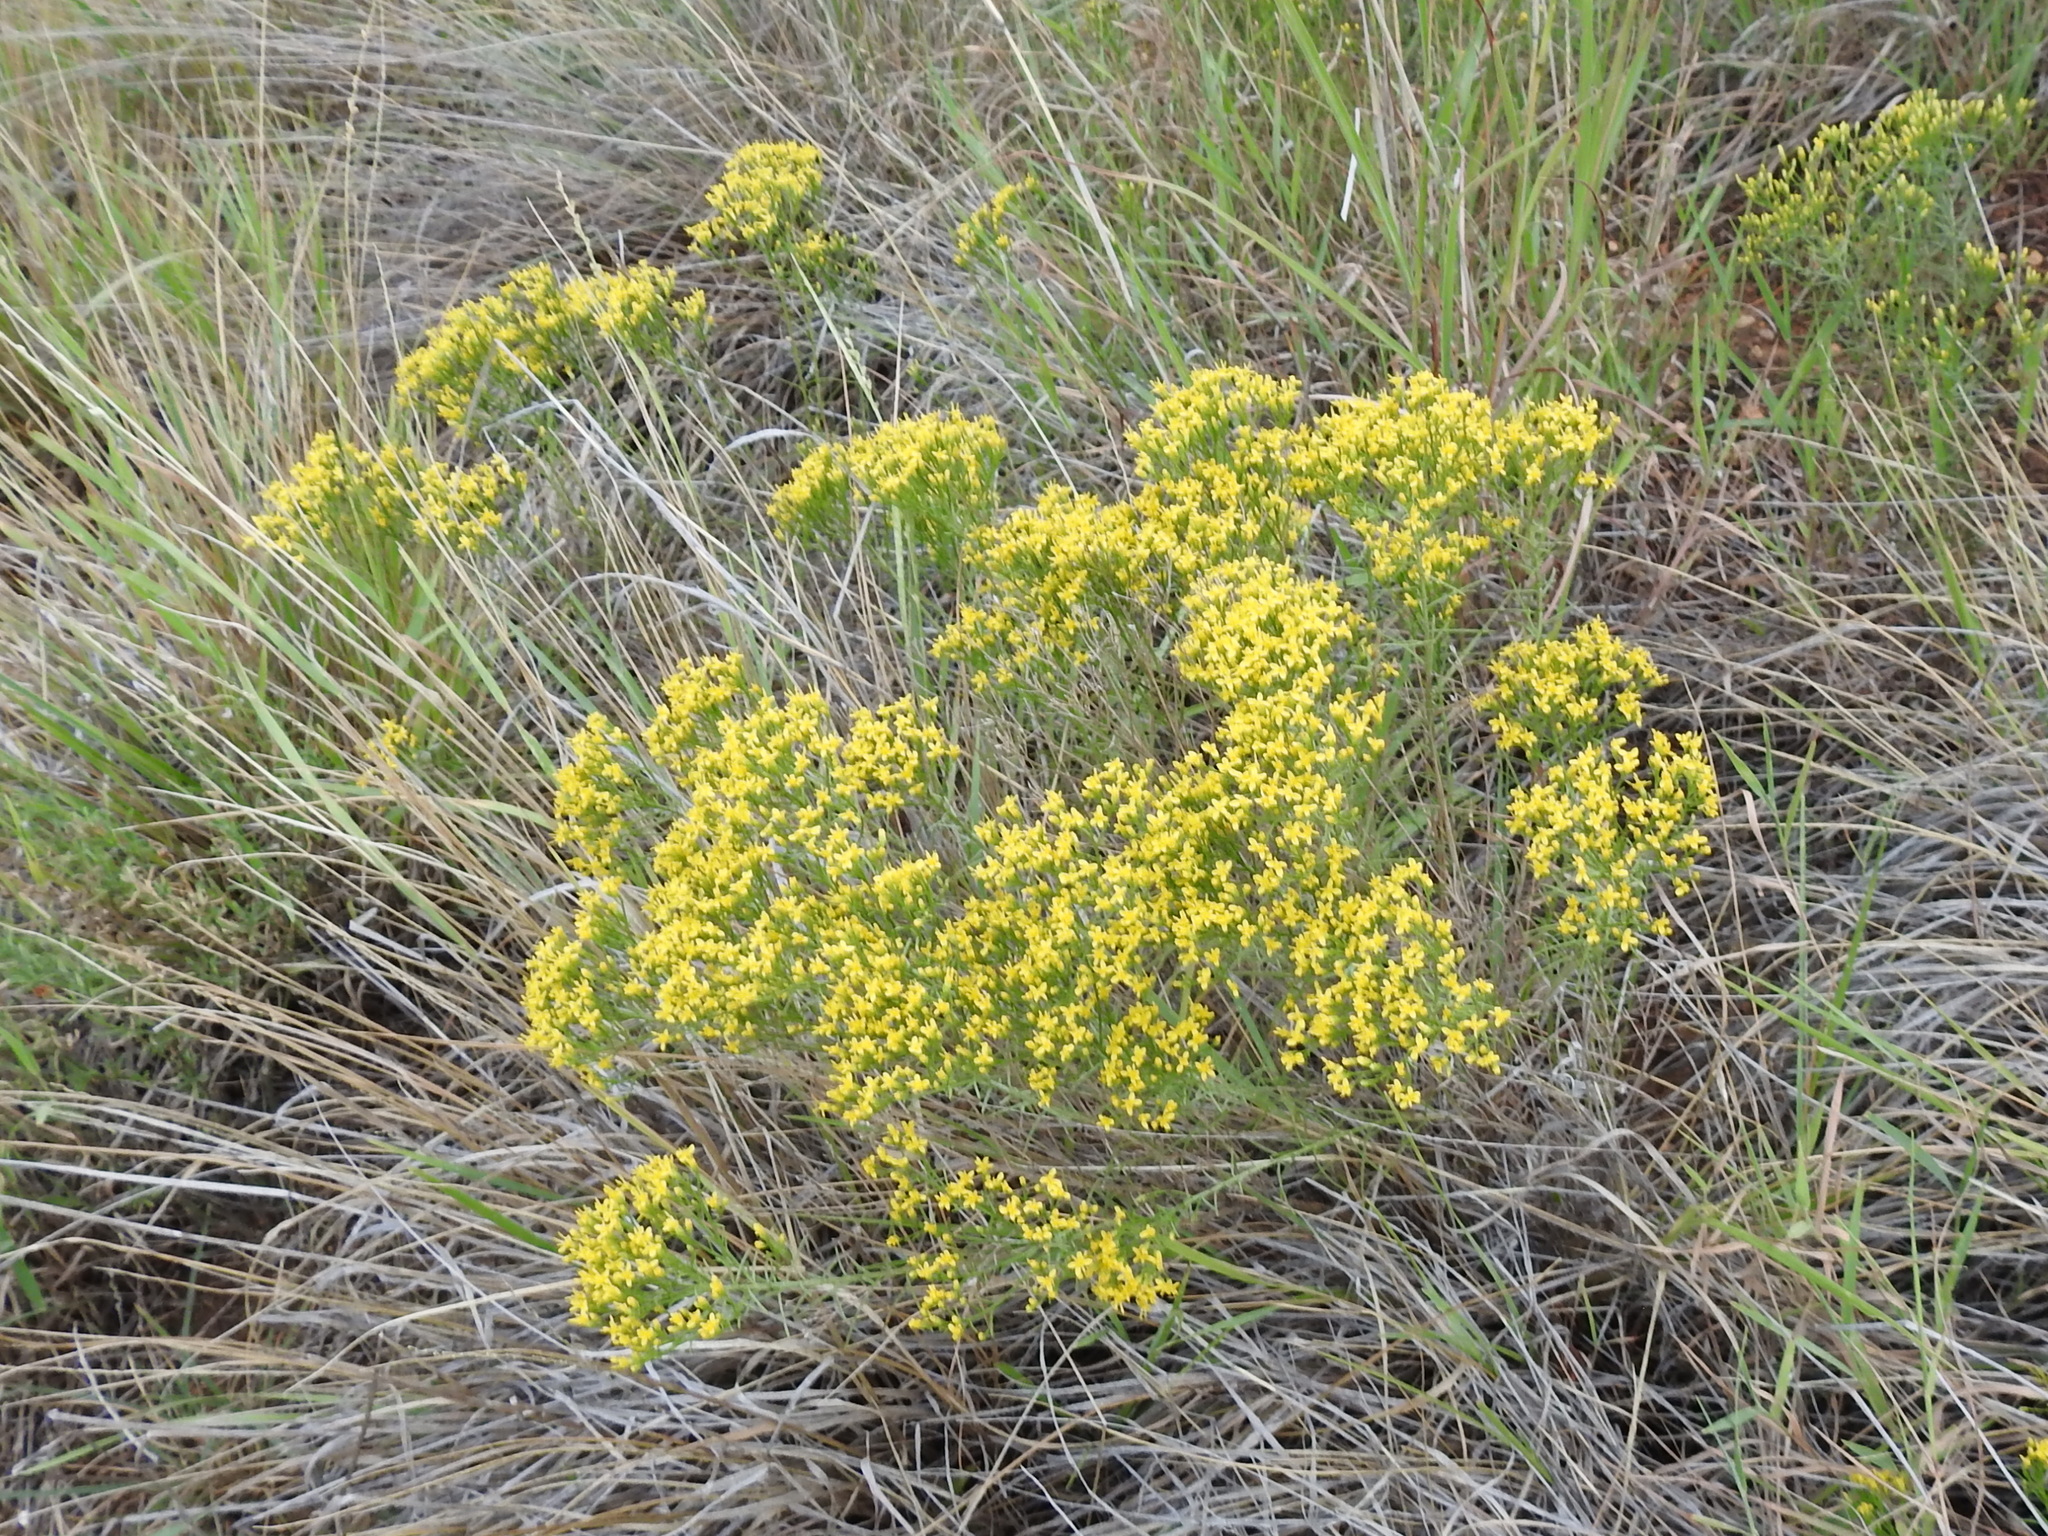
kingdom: Plantae
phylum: Tracheophyta
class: Magnoliopsida
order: Asterales
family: Asteraceae
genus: Gutierrezia
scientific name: Gutierrezia sarothrae
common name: Broom snakeweed
